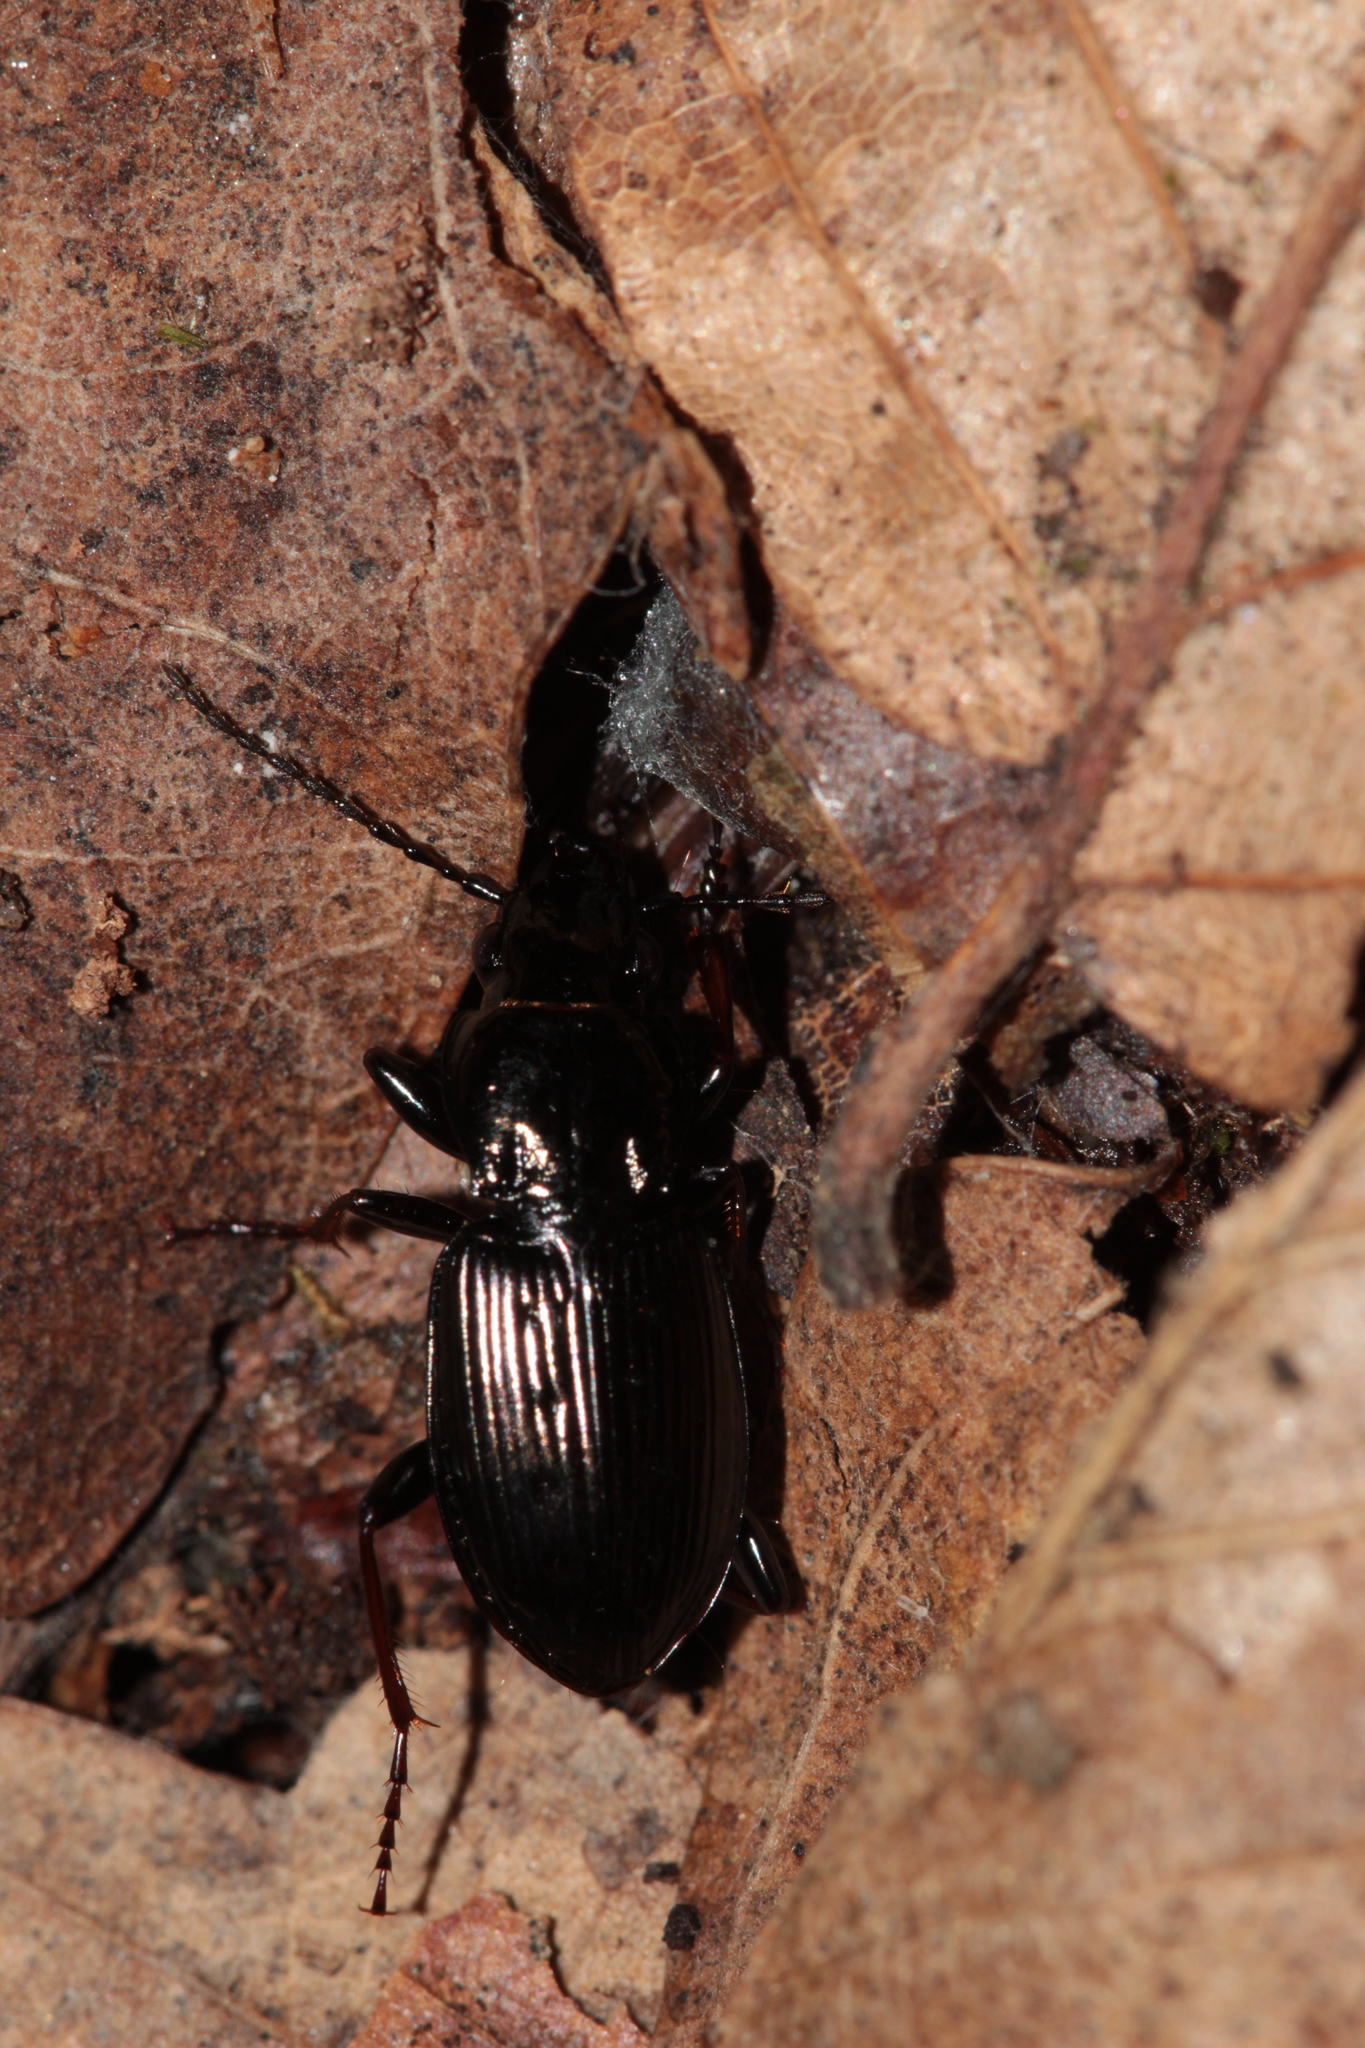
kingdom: Animalia
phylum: Arthropoda
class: Insecta
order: Coleoptera
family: Carabidae
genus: Pterostichus
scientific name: Pterostichus oblongopunctatus
